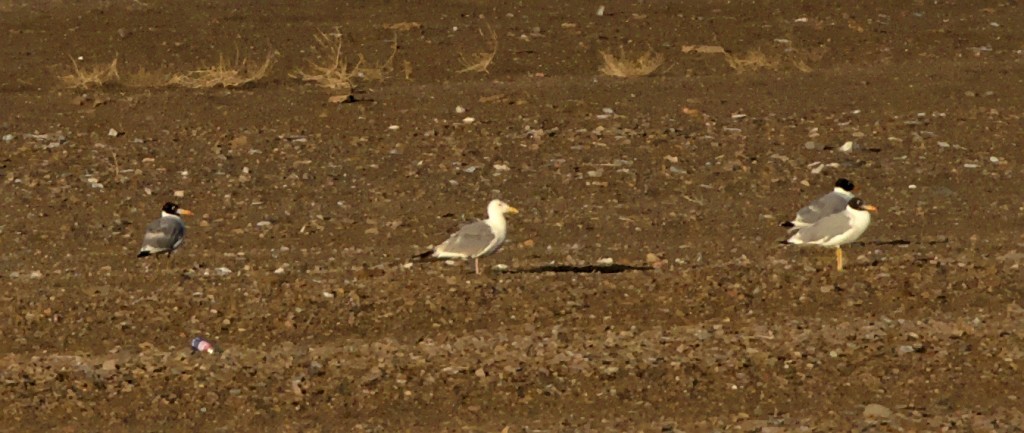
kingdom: Animalia
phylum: Chordata
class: Aves
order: Charadriiformes
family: Laridae
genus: Ichthyaetus
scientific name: Ichthyaetus ichthyaetus
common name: Pallas's gull
